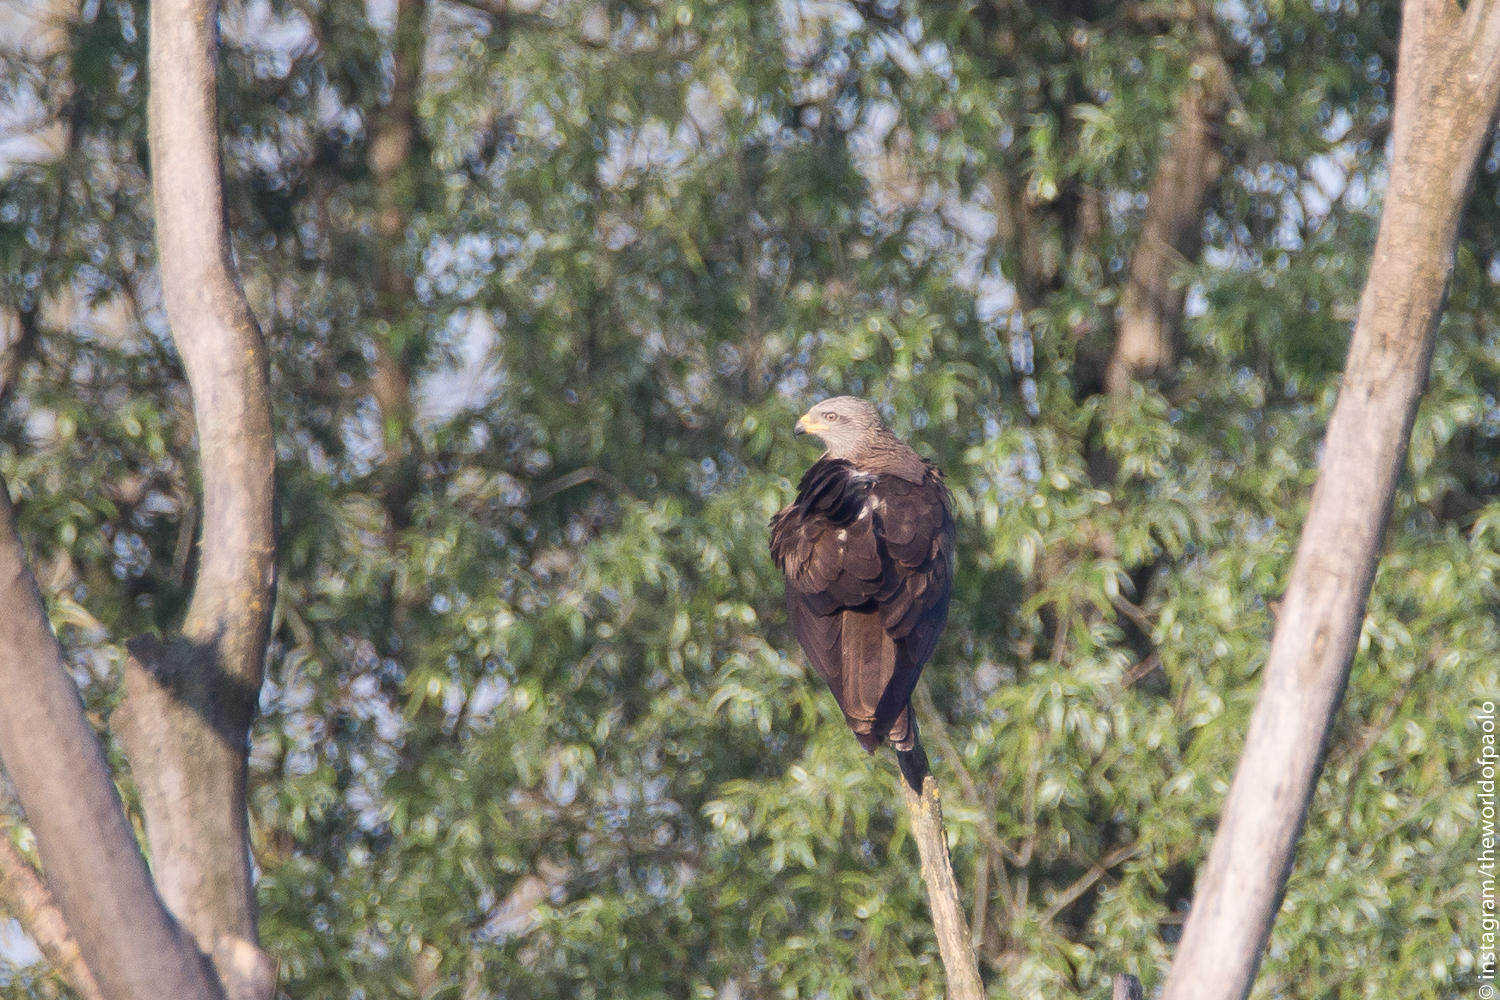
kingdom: Animalia
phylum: Chordata
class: Aves
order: Accipitriformes
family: Accipitridae
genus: Milvus
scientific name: Milvus migrans
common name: Black kite
